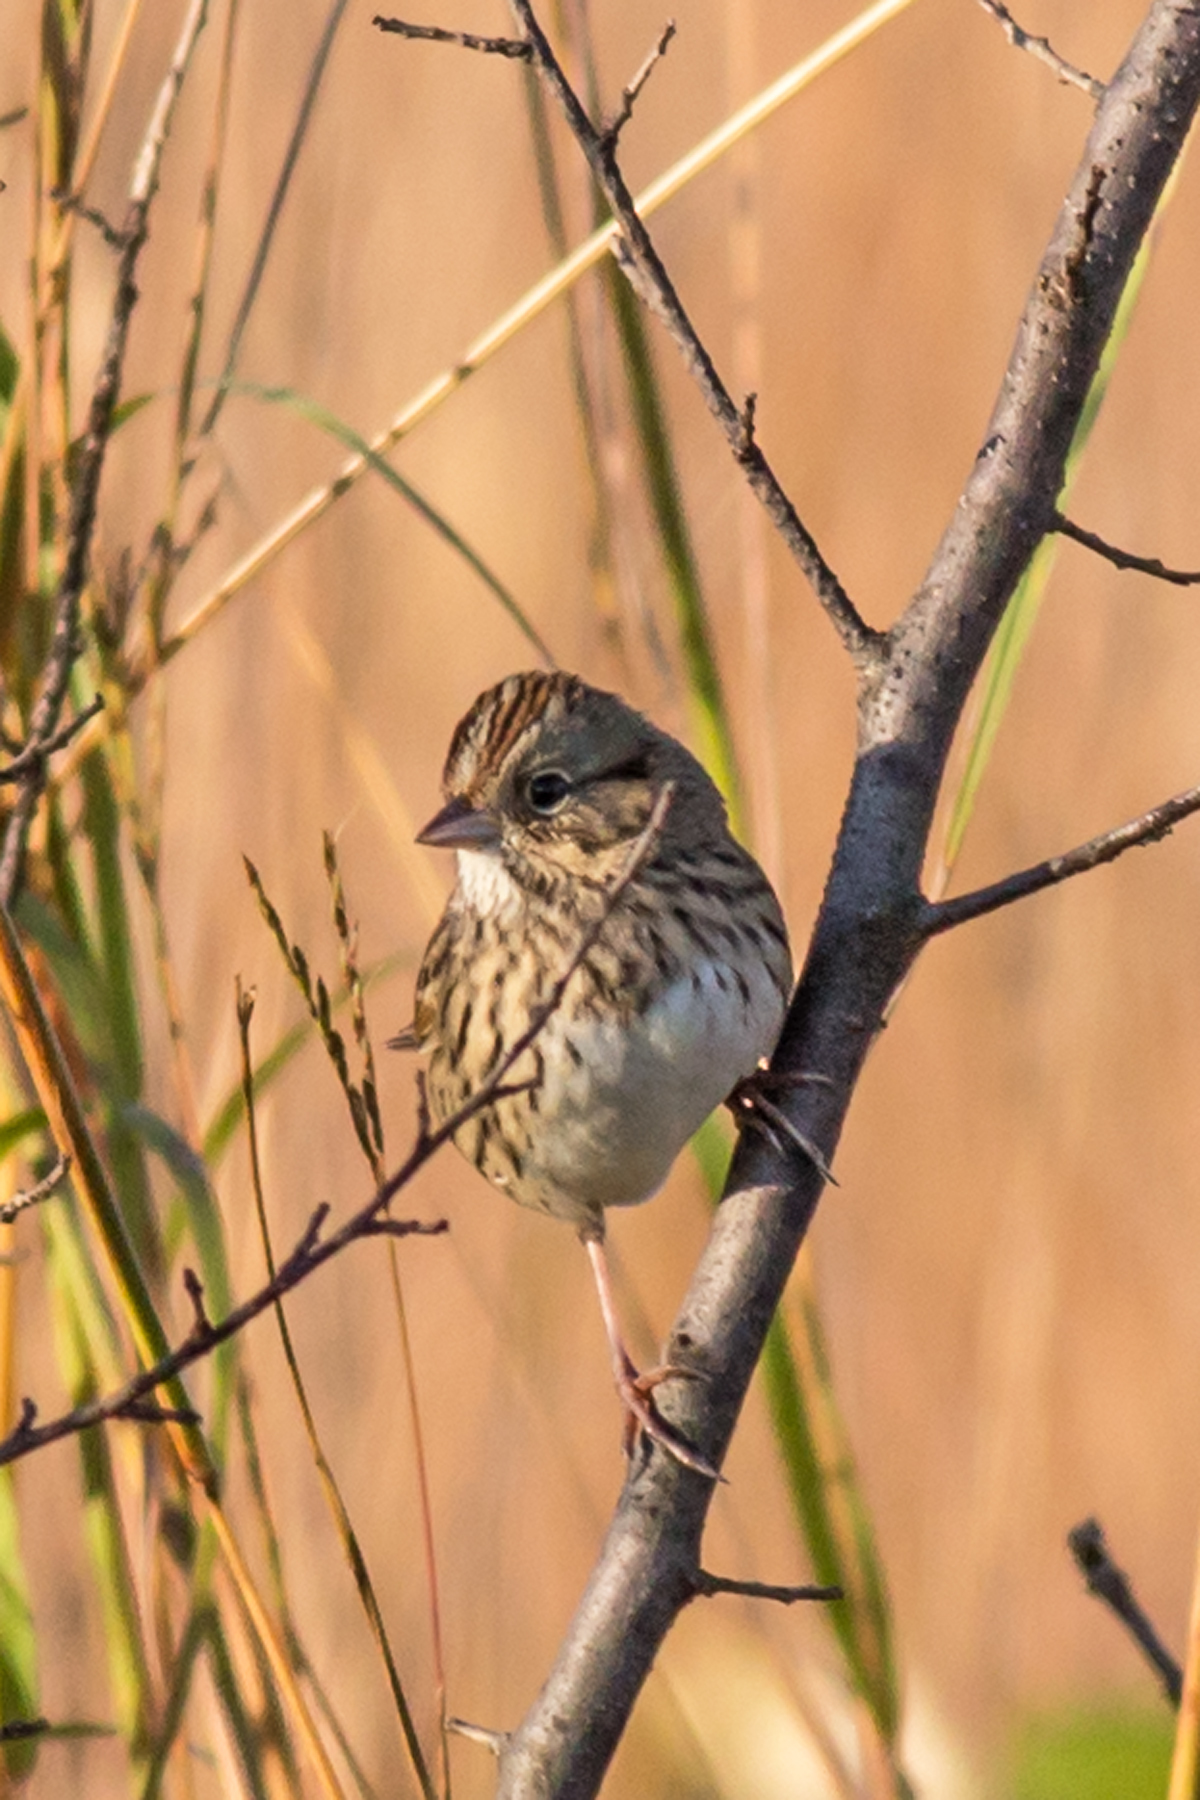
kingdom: Animalia
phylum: Chordata
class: Aves
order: Passeriformes
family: Passerellidae
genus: Melospiza
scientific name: Melospiza lincolnii
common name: Lincoln's sparrow
